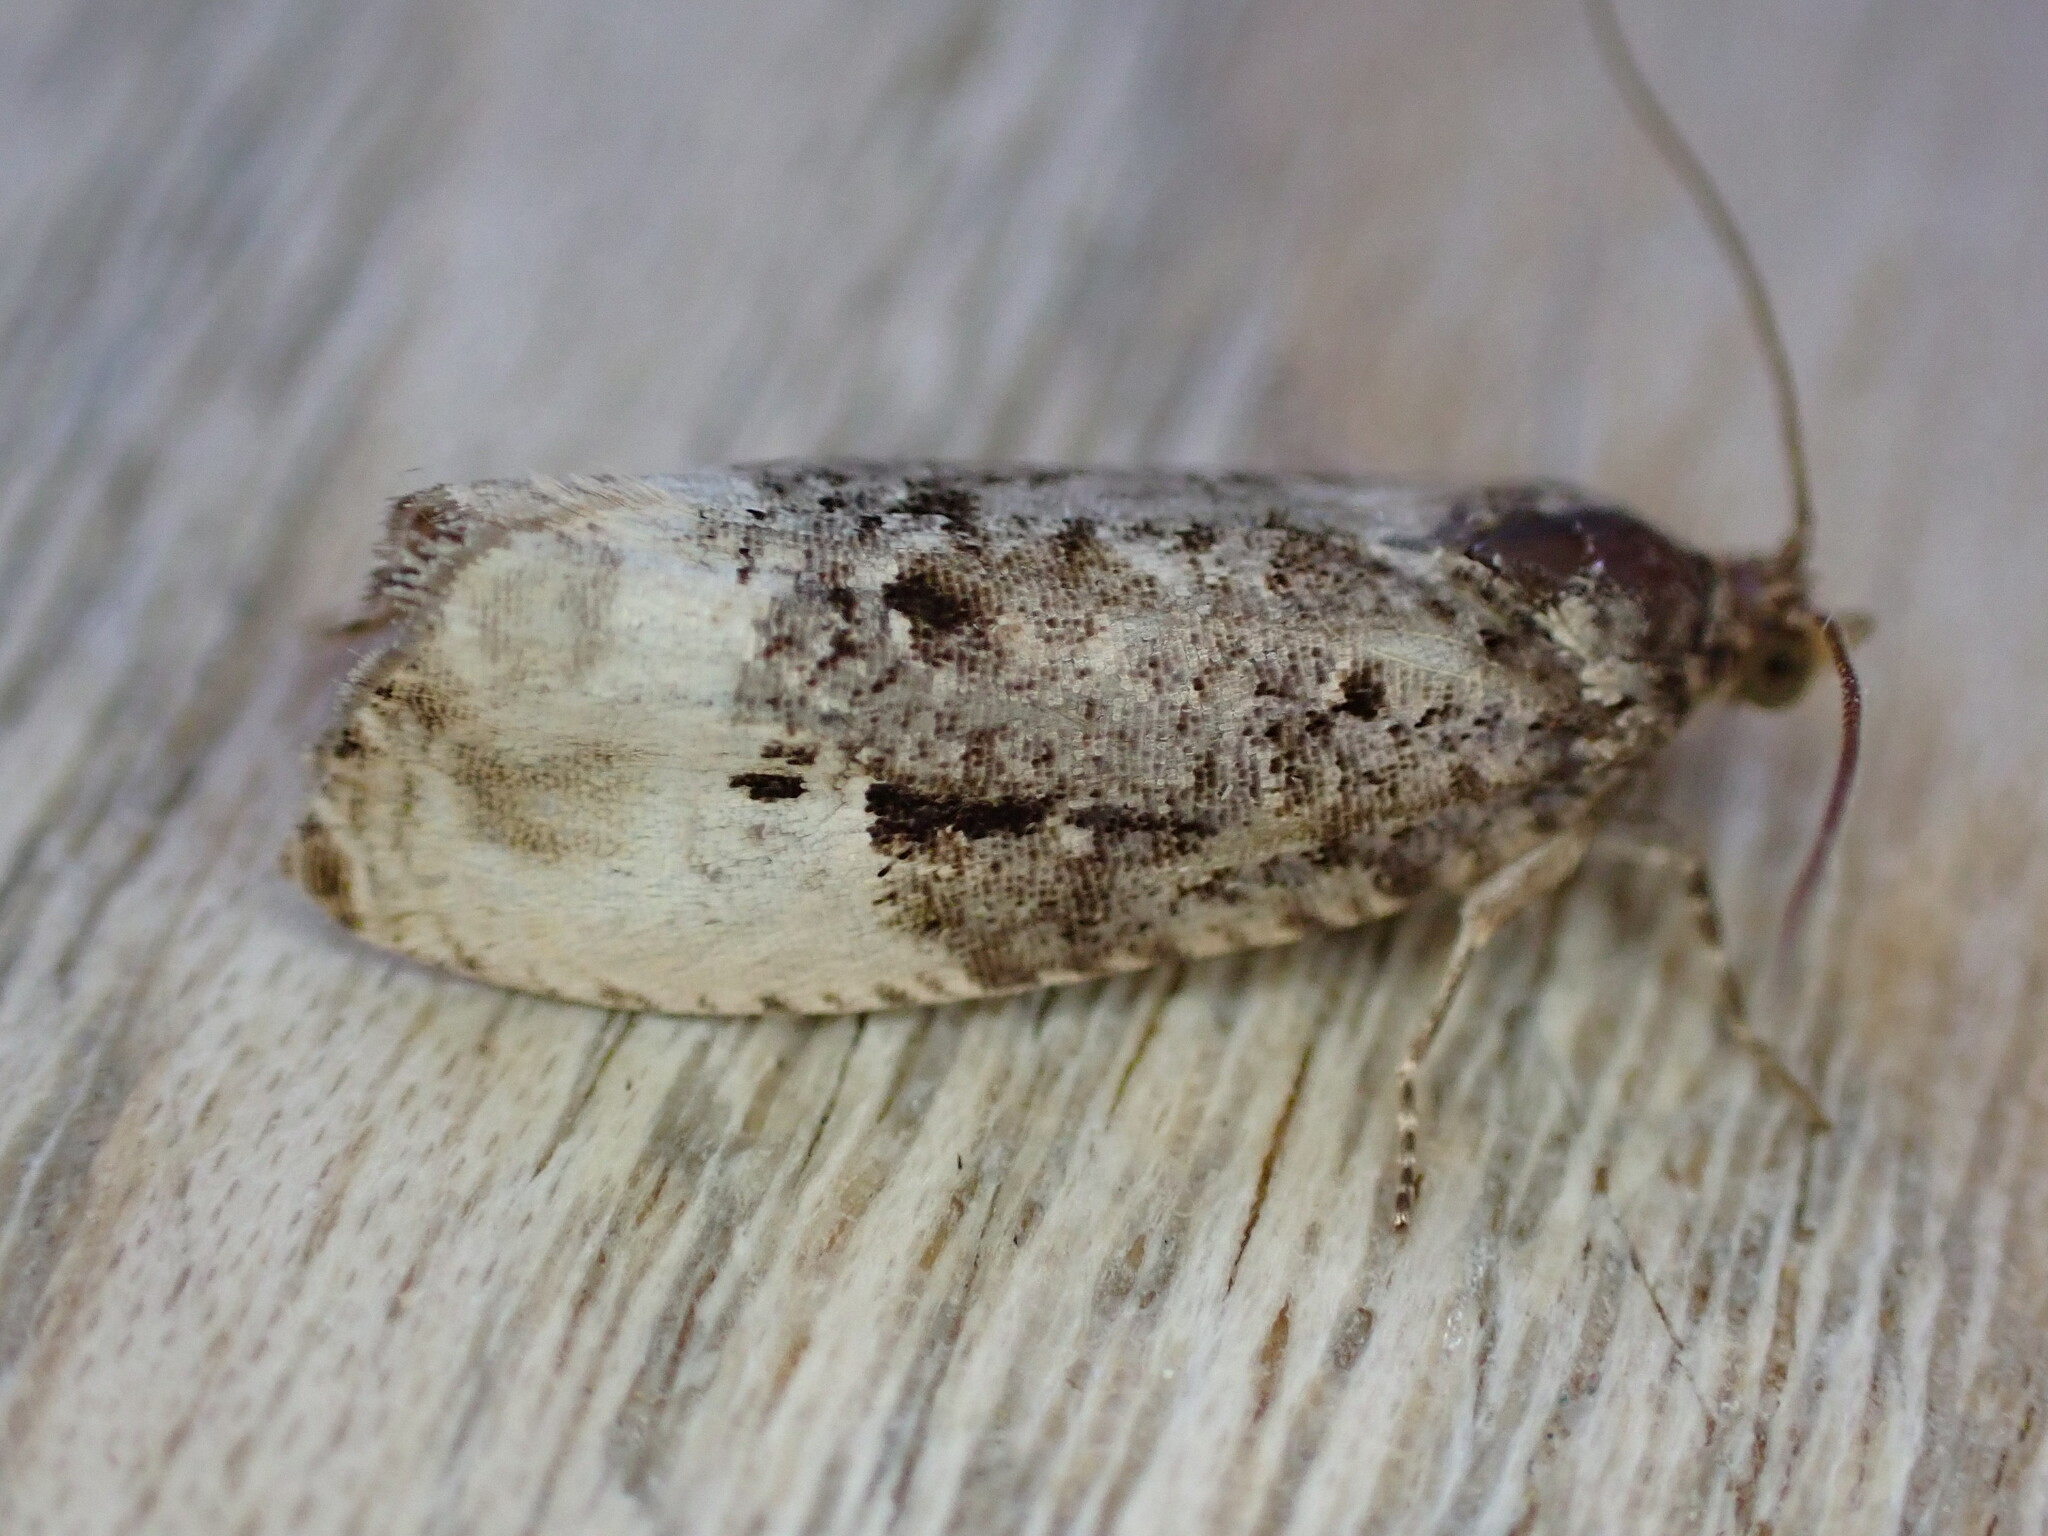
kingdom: Animalia
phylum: Arthropoda
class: Insecta
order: Lepidoptera
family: Tortricidae
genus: Hedya
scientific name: Hedya nubiferana
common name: Marbled orchard tortrix
